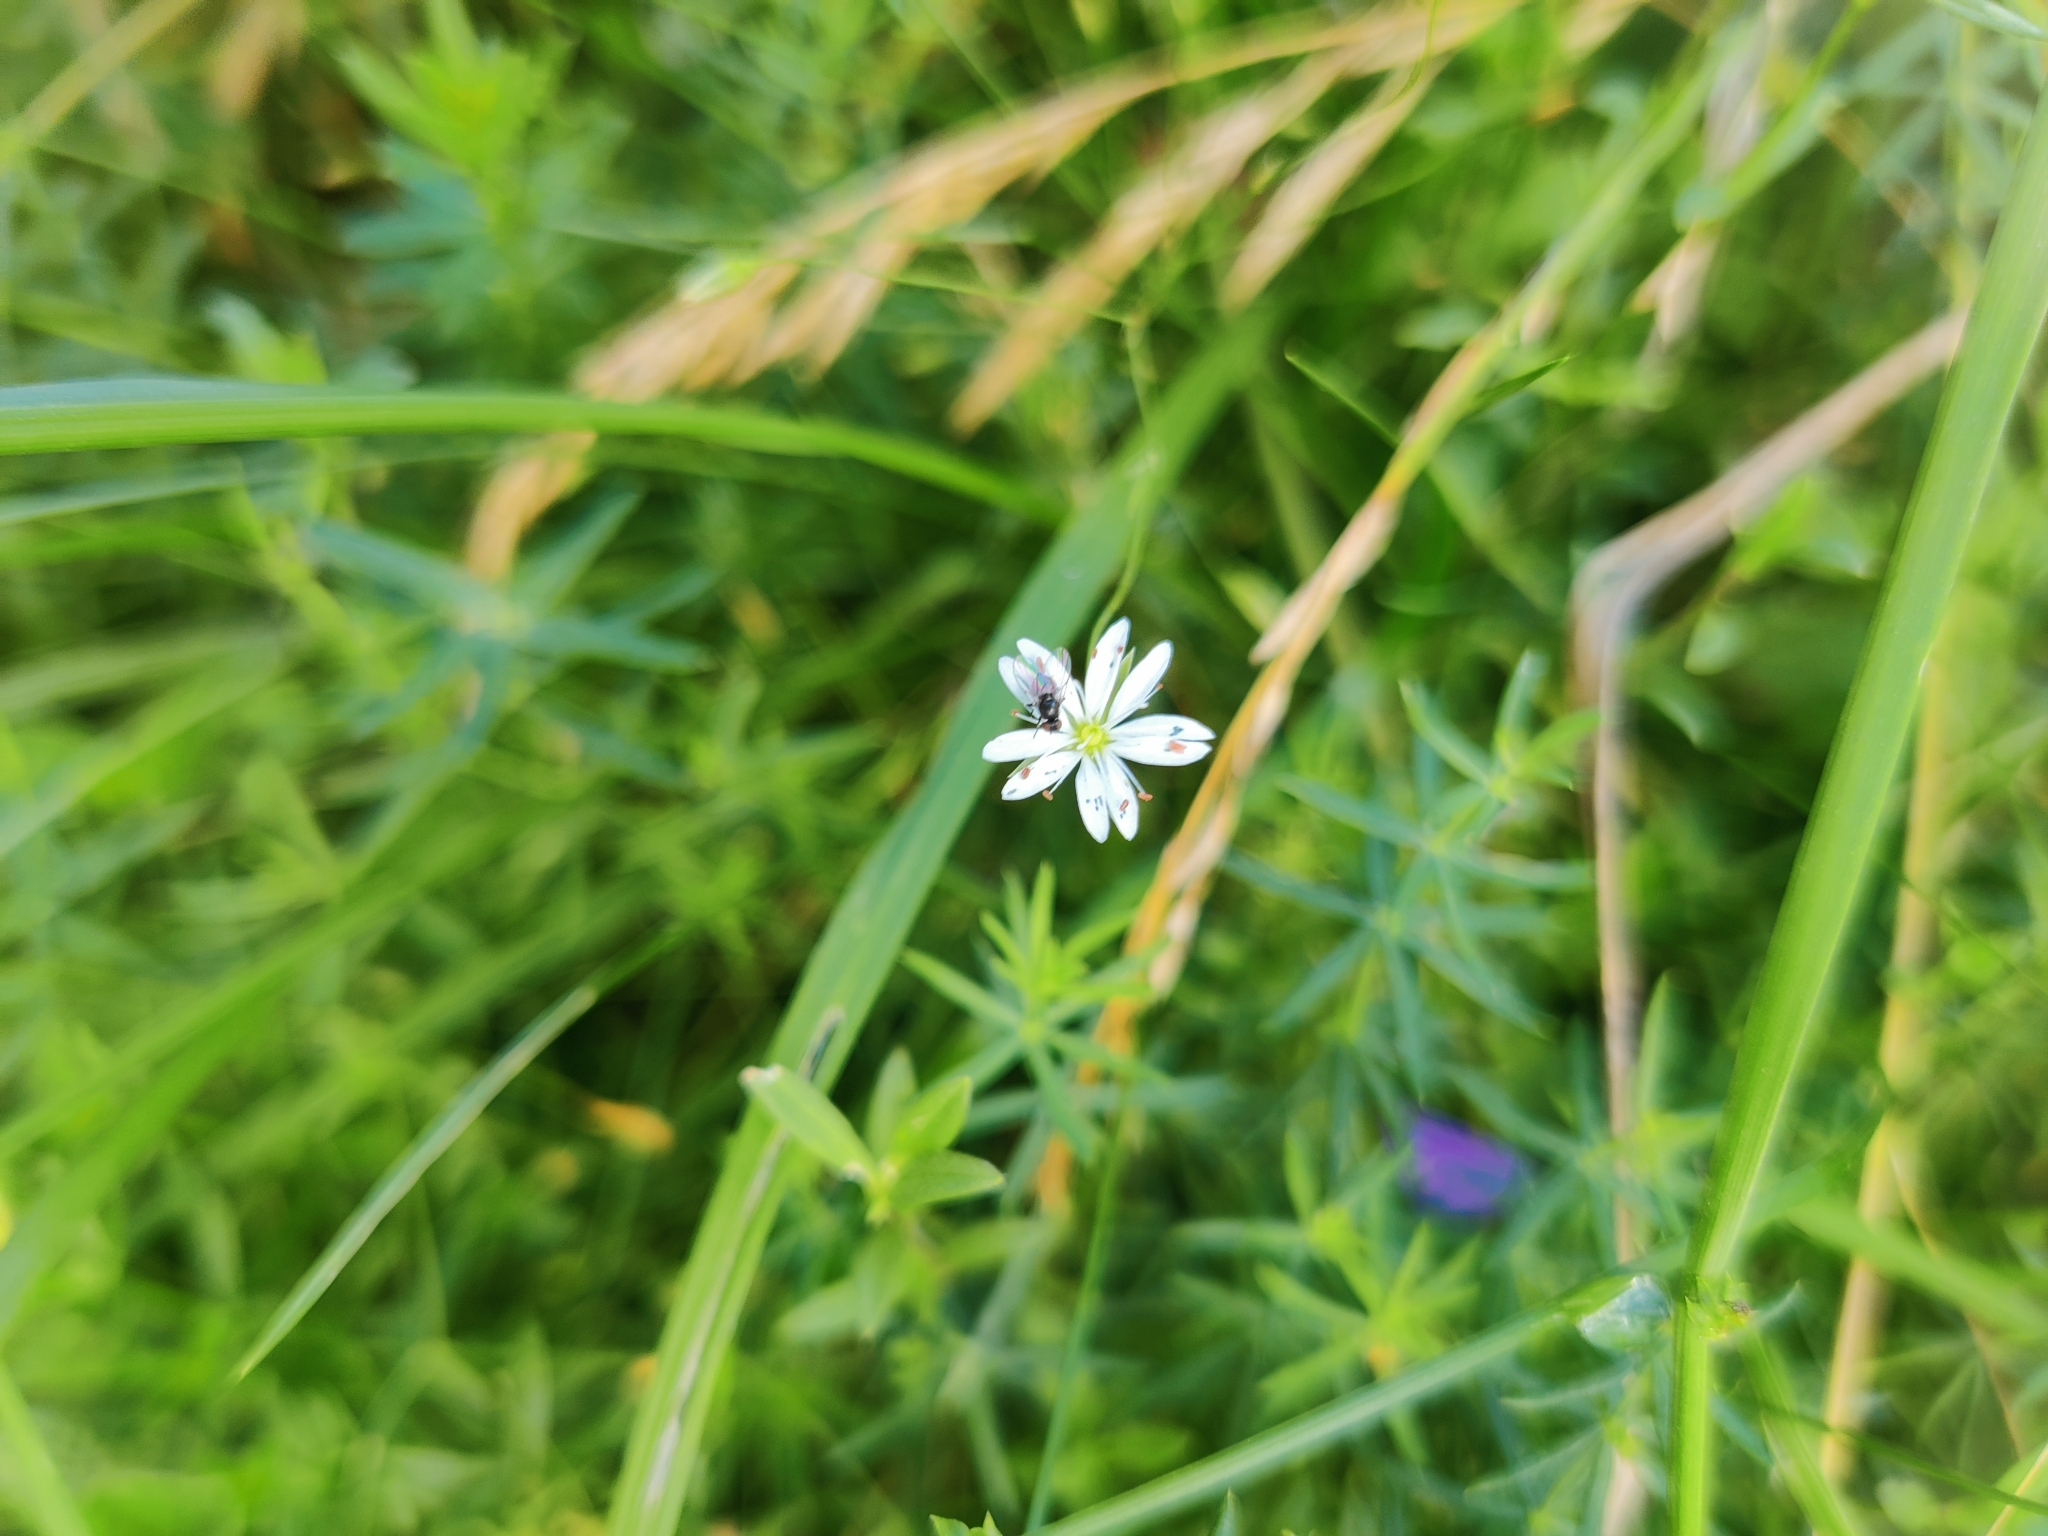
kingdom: Plantae
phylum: Tracheophyta
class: Magnoliopsida
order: Caryophyllales
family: Caryophyllaceae
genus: Stellaria
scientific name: Stellaria graminea
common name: Grass-like starwort
